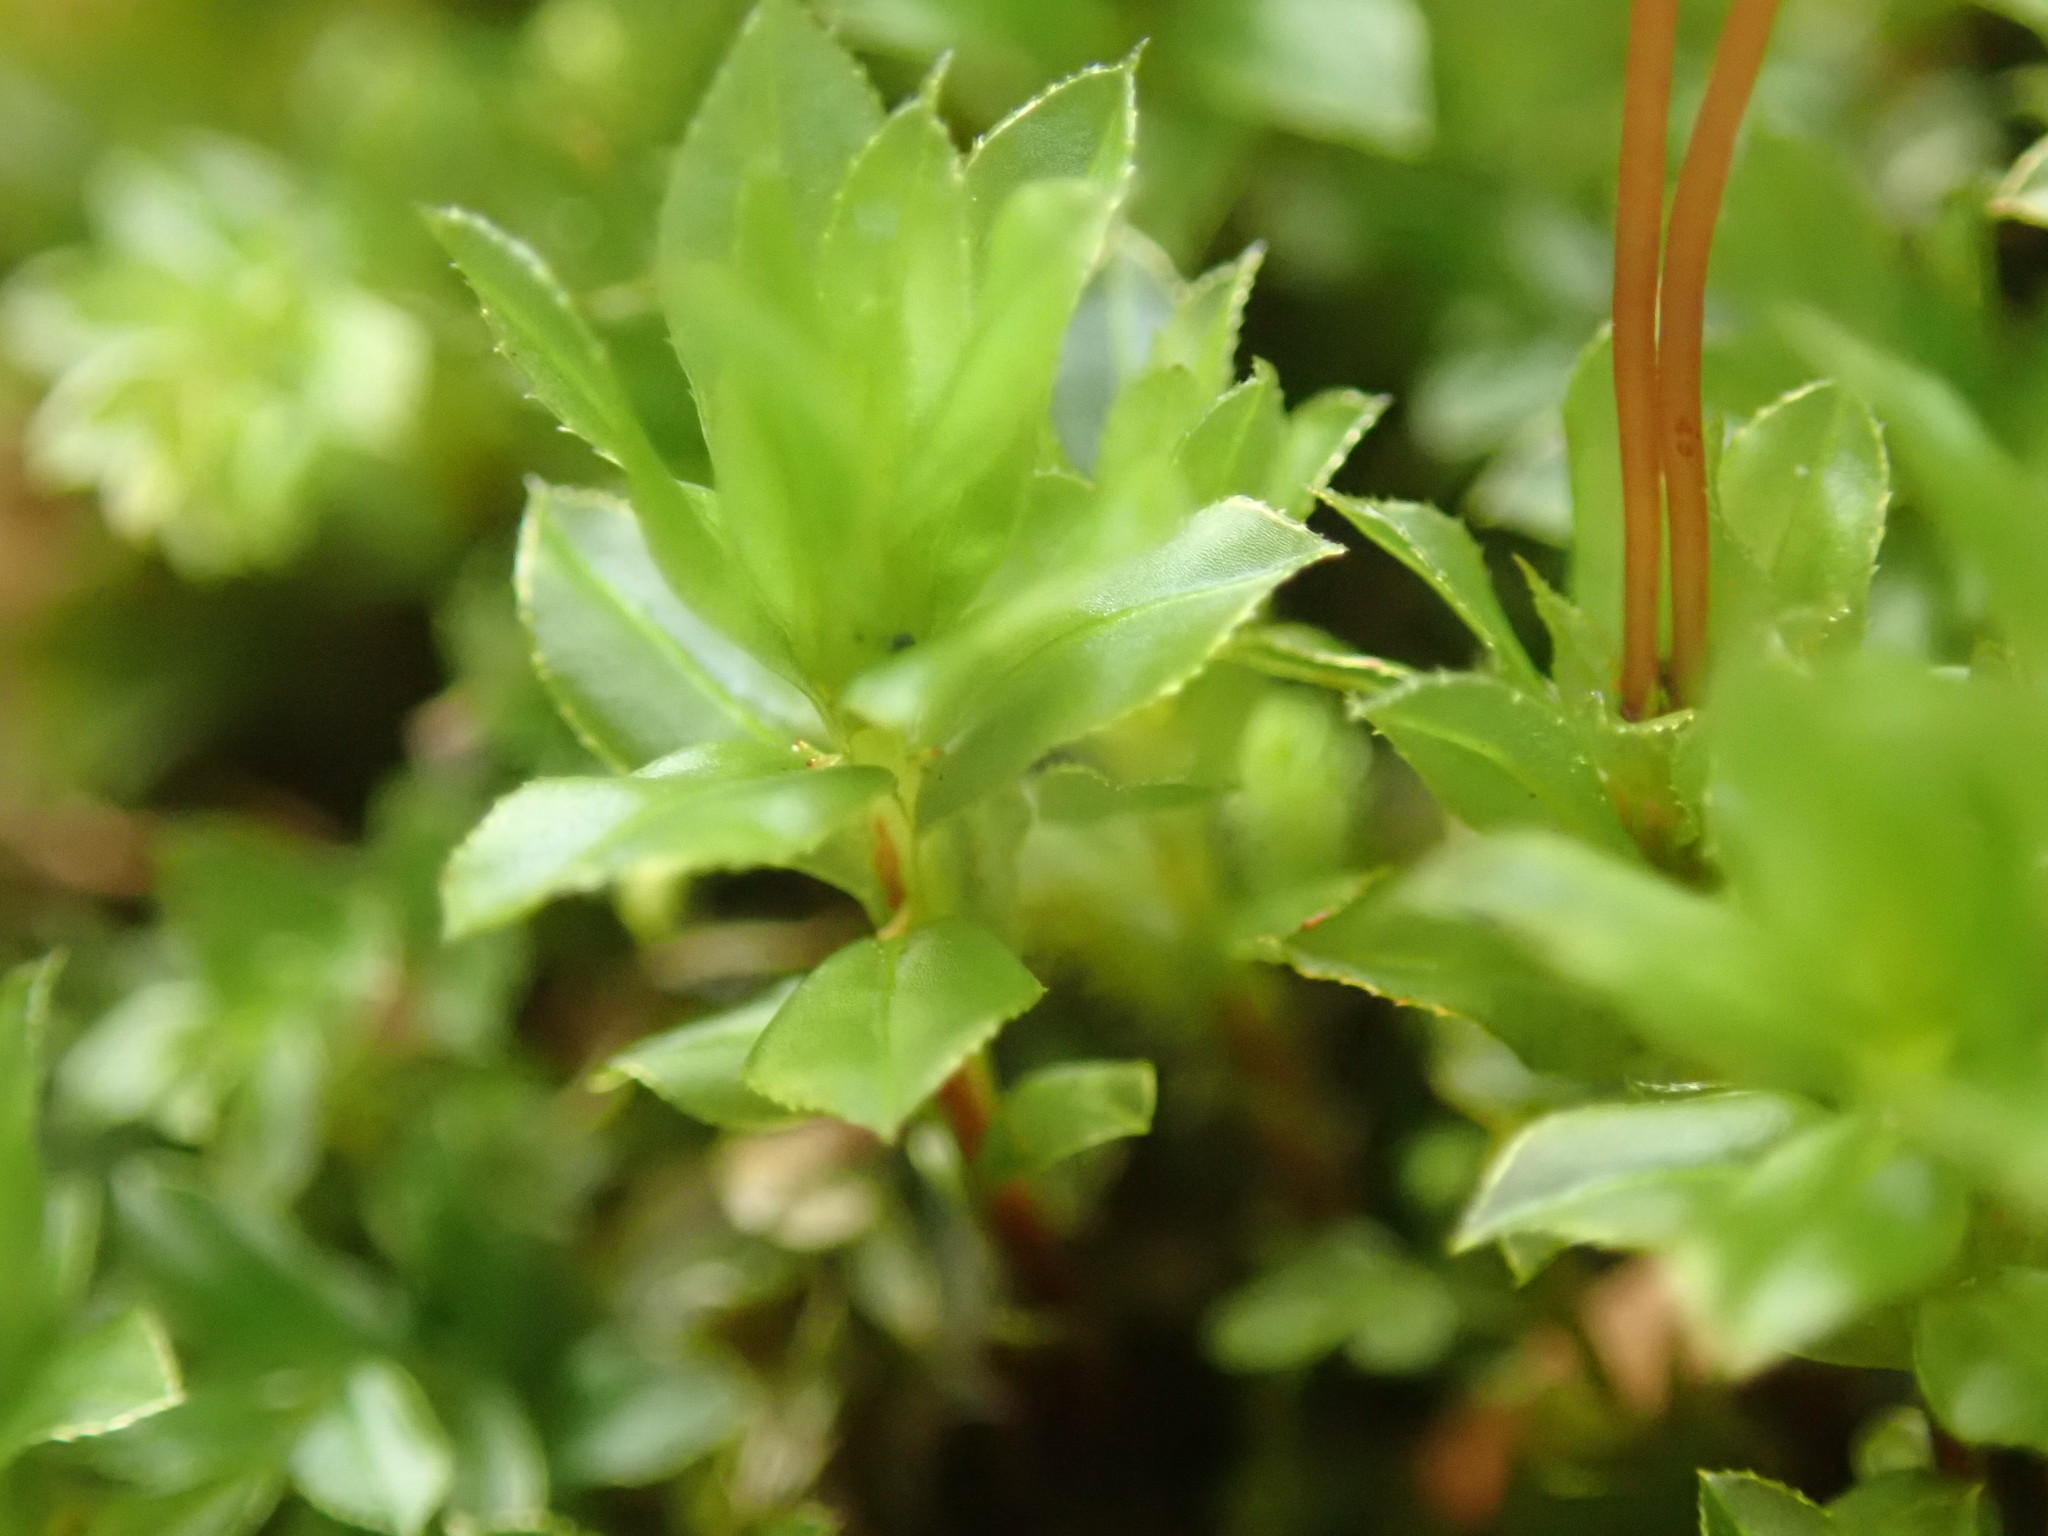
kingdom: Plantae
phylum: Bryophyta
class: Bryopsida
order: Bryales
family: Mniaceae
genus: Mnium
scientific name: Mnium spinulosum
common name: Red-mouthed leafy moss
